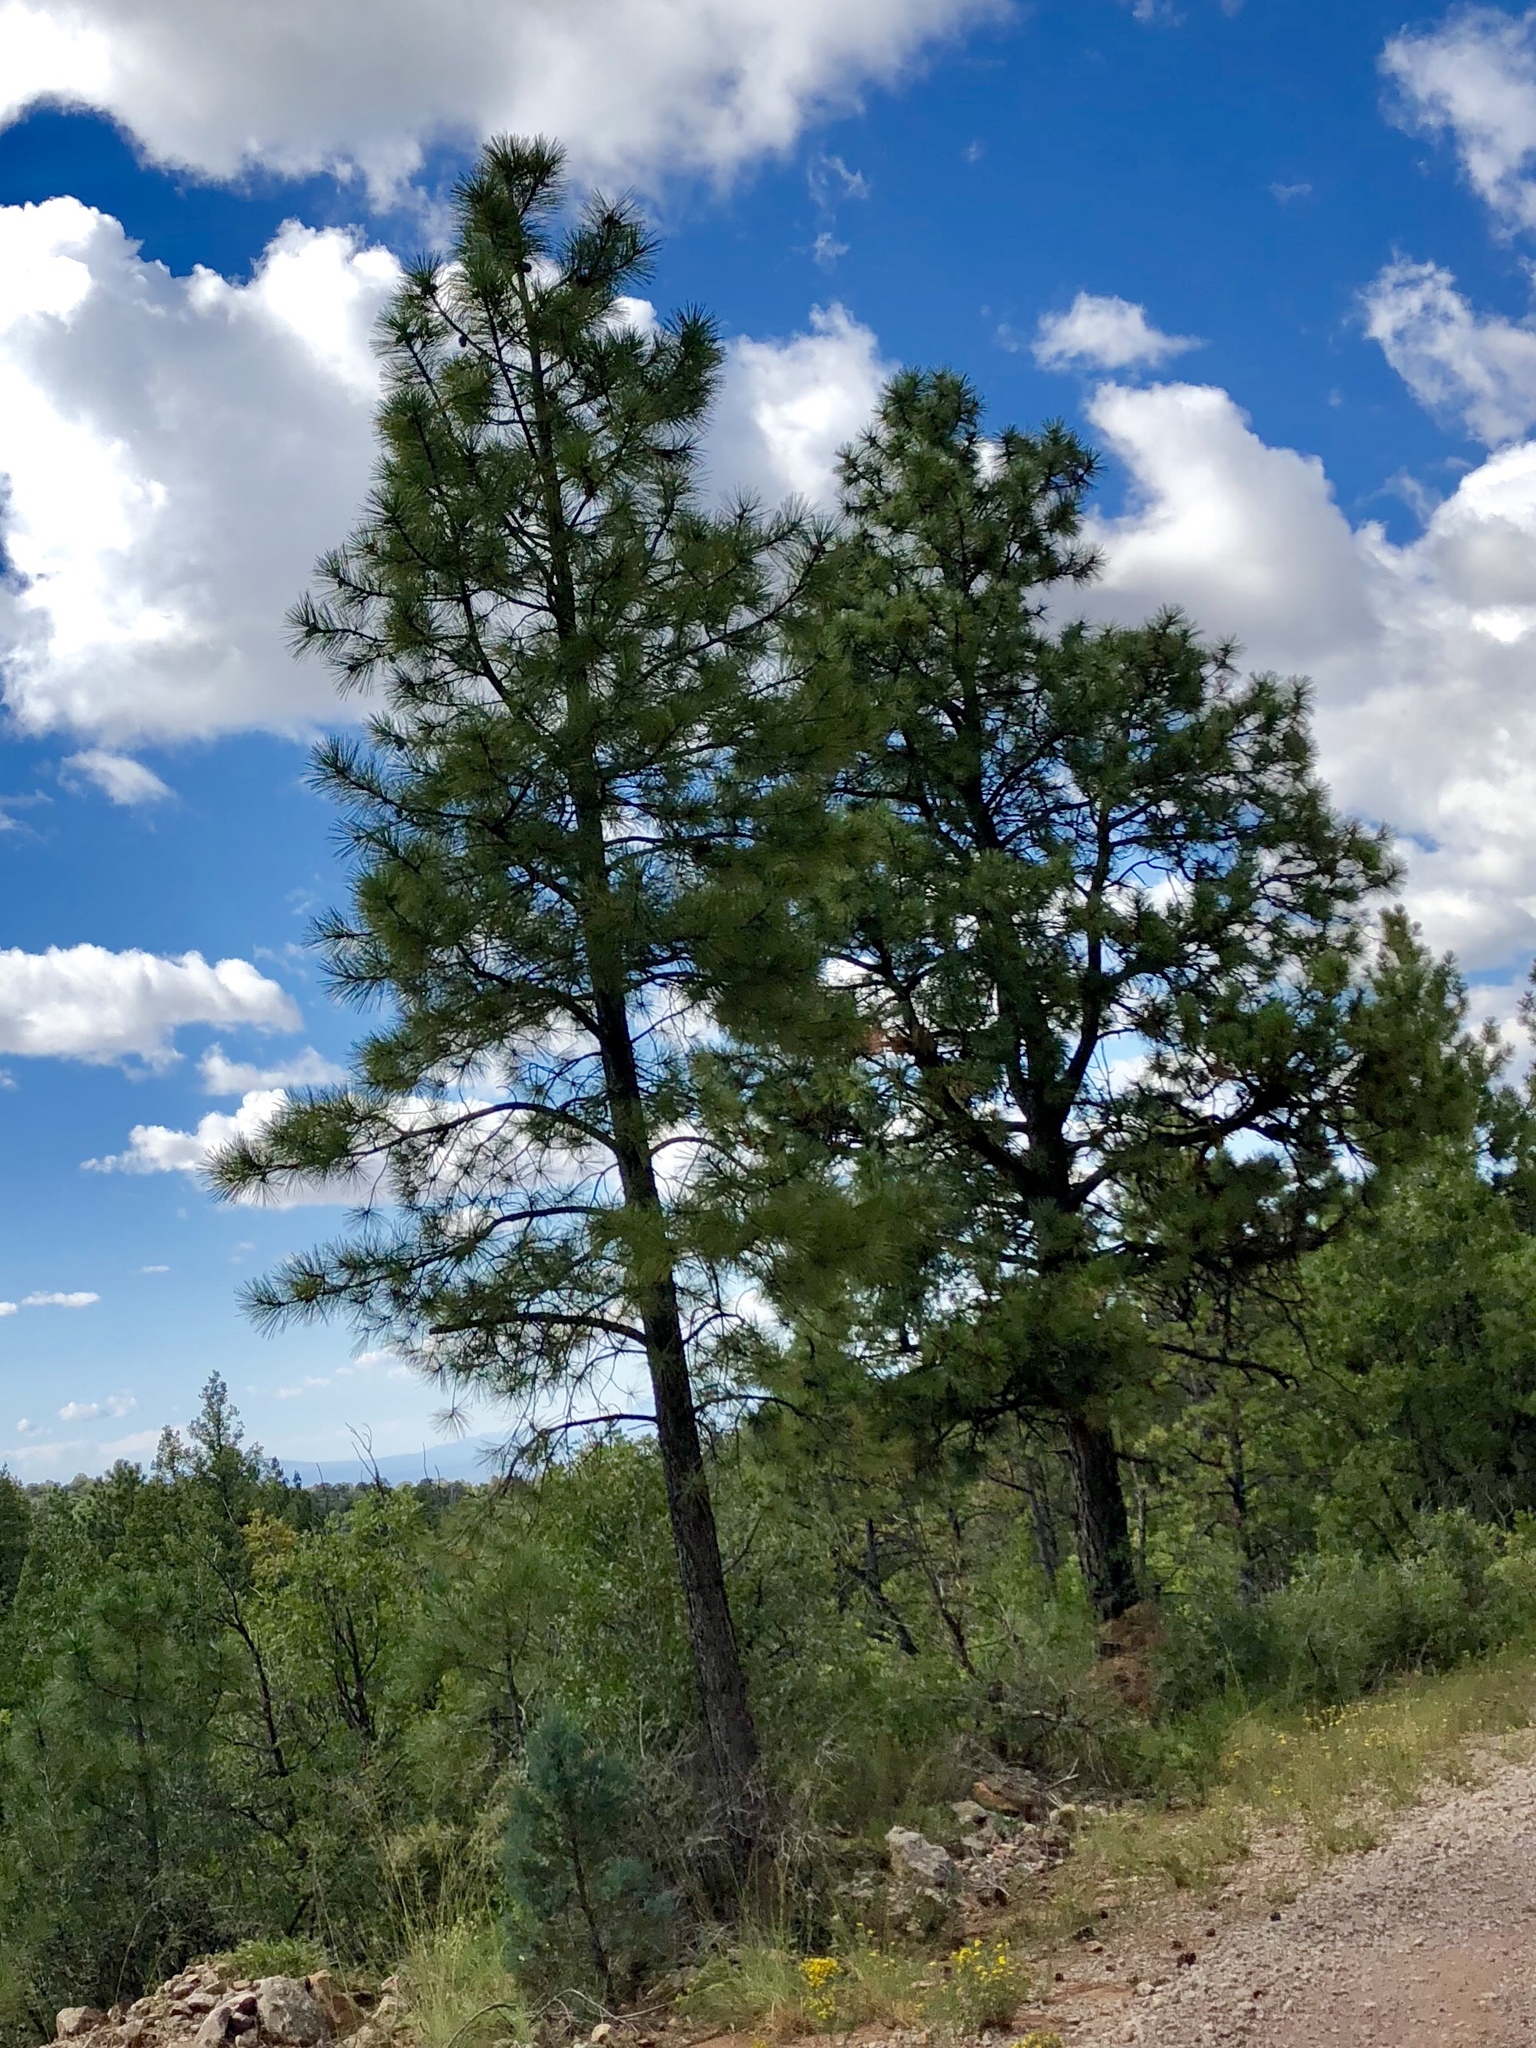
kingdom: Plantae
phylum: Tracheophyta
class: Pinopsida
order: Pinales
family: Pinaceae
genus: Pinus
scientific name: Pinus ponderosa
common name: Western yellow-pine
